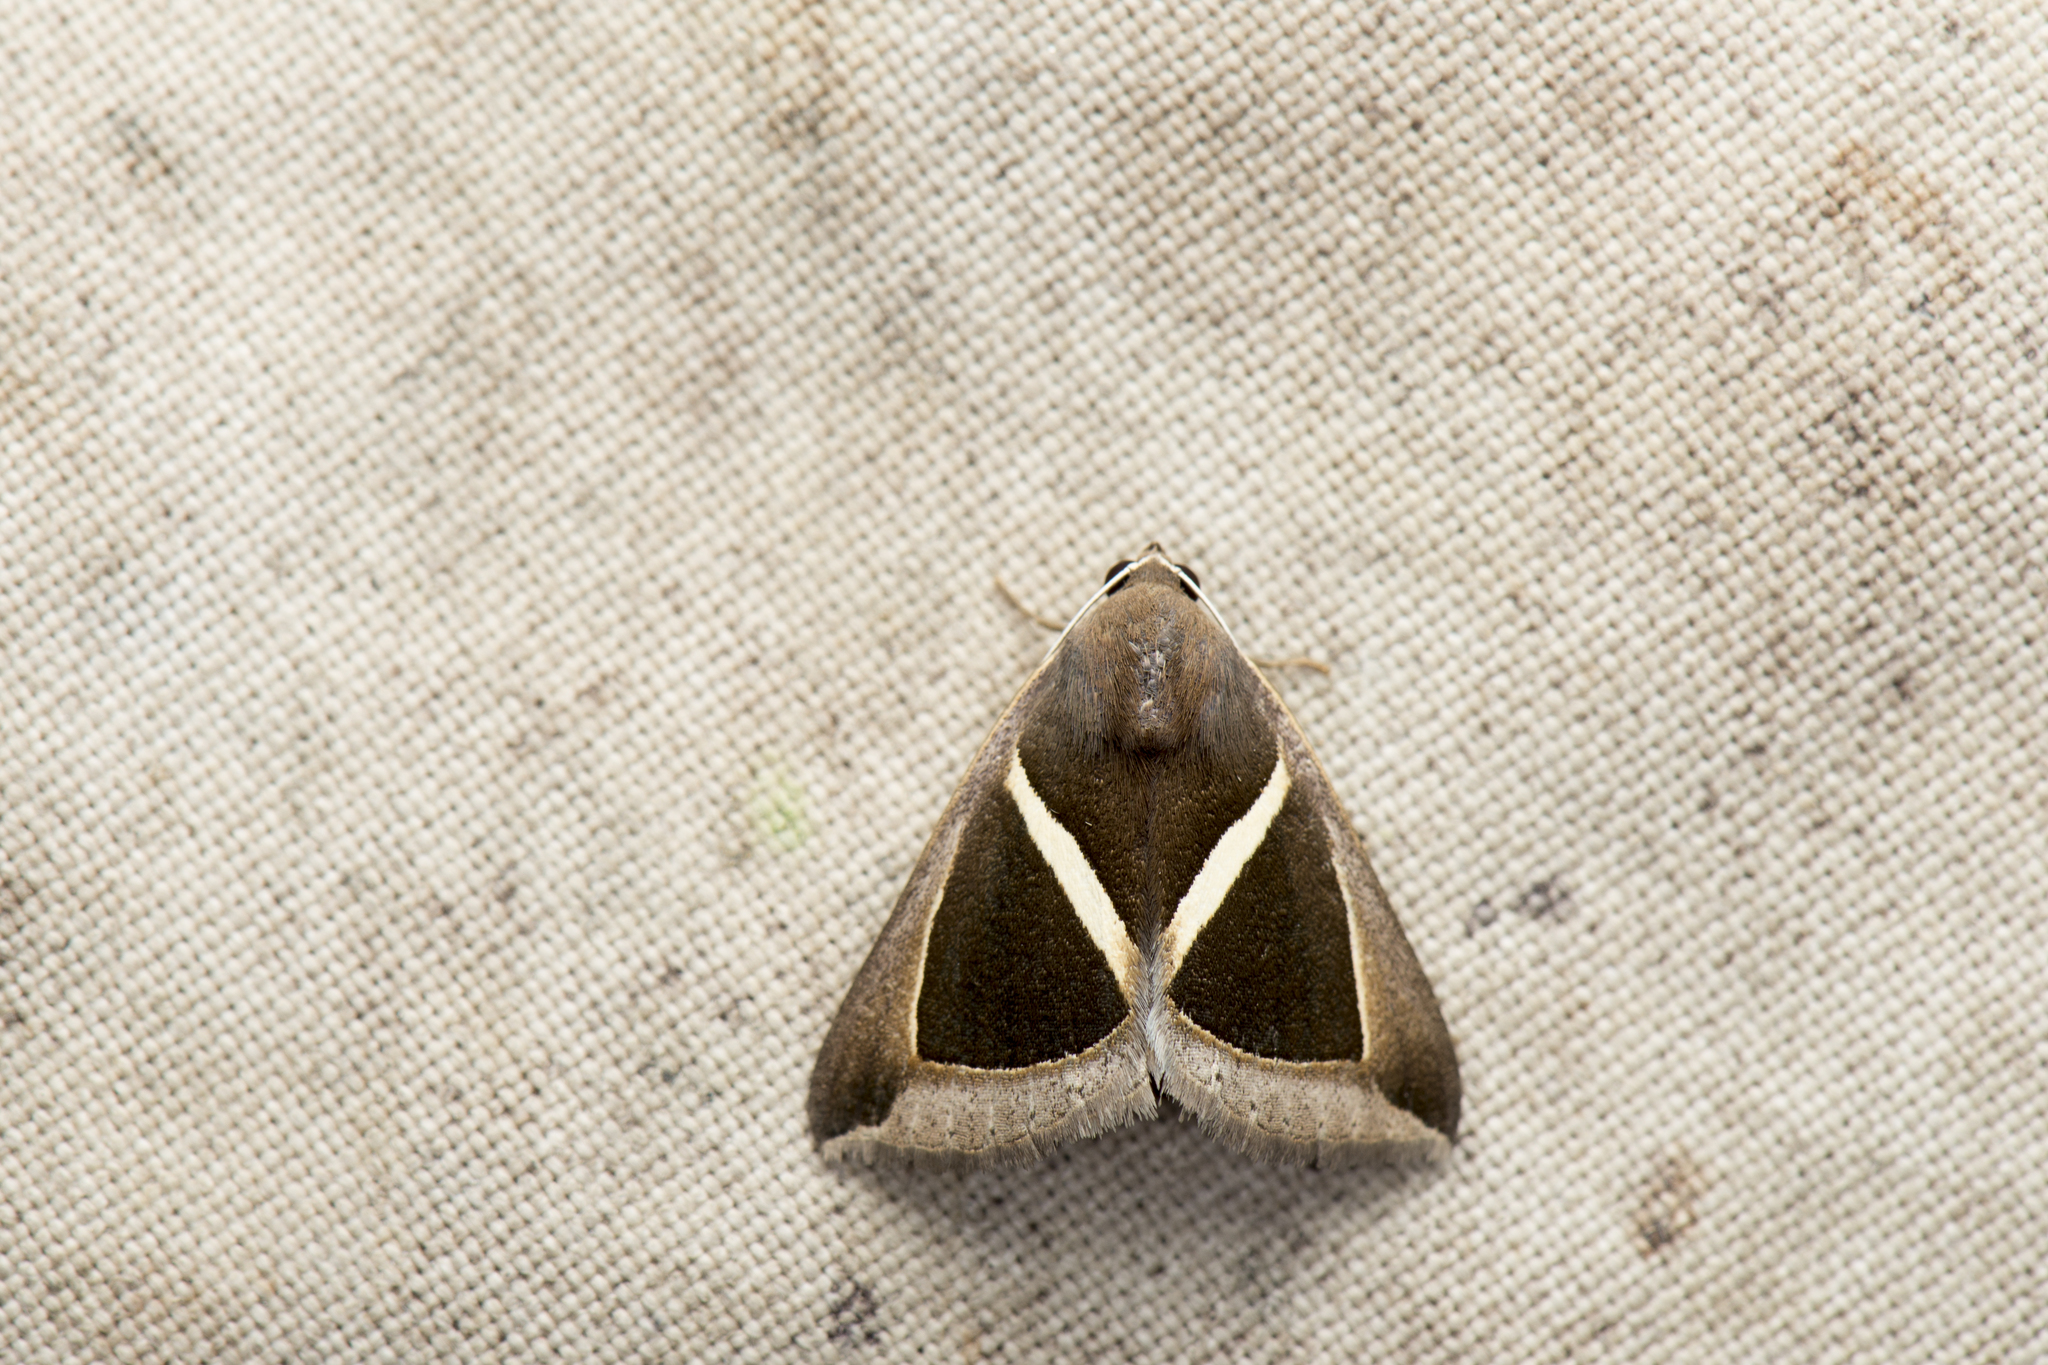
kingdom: Animalia
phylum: Arthropoda
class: Insecta
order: Lepidoptera
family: Erebidae
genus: Chalciope
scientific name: Chalciope mygdon
